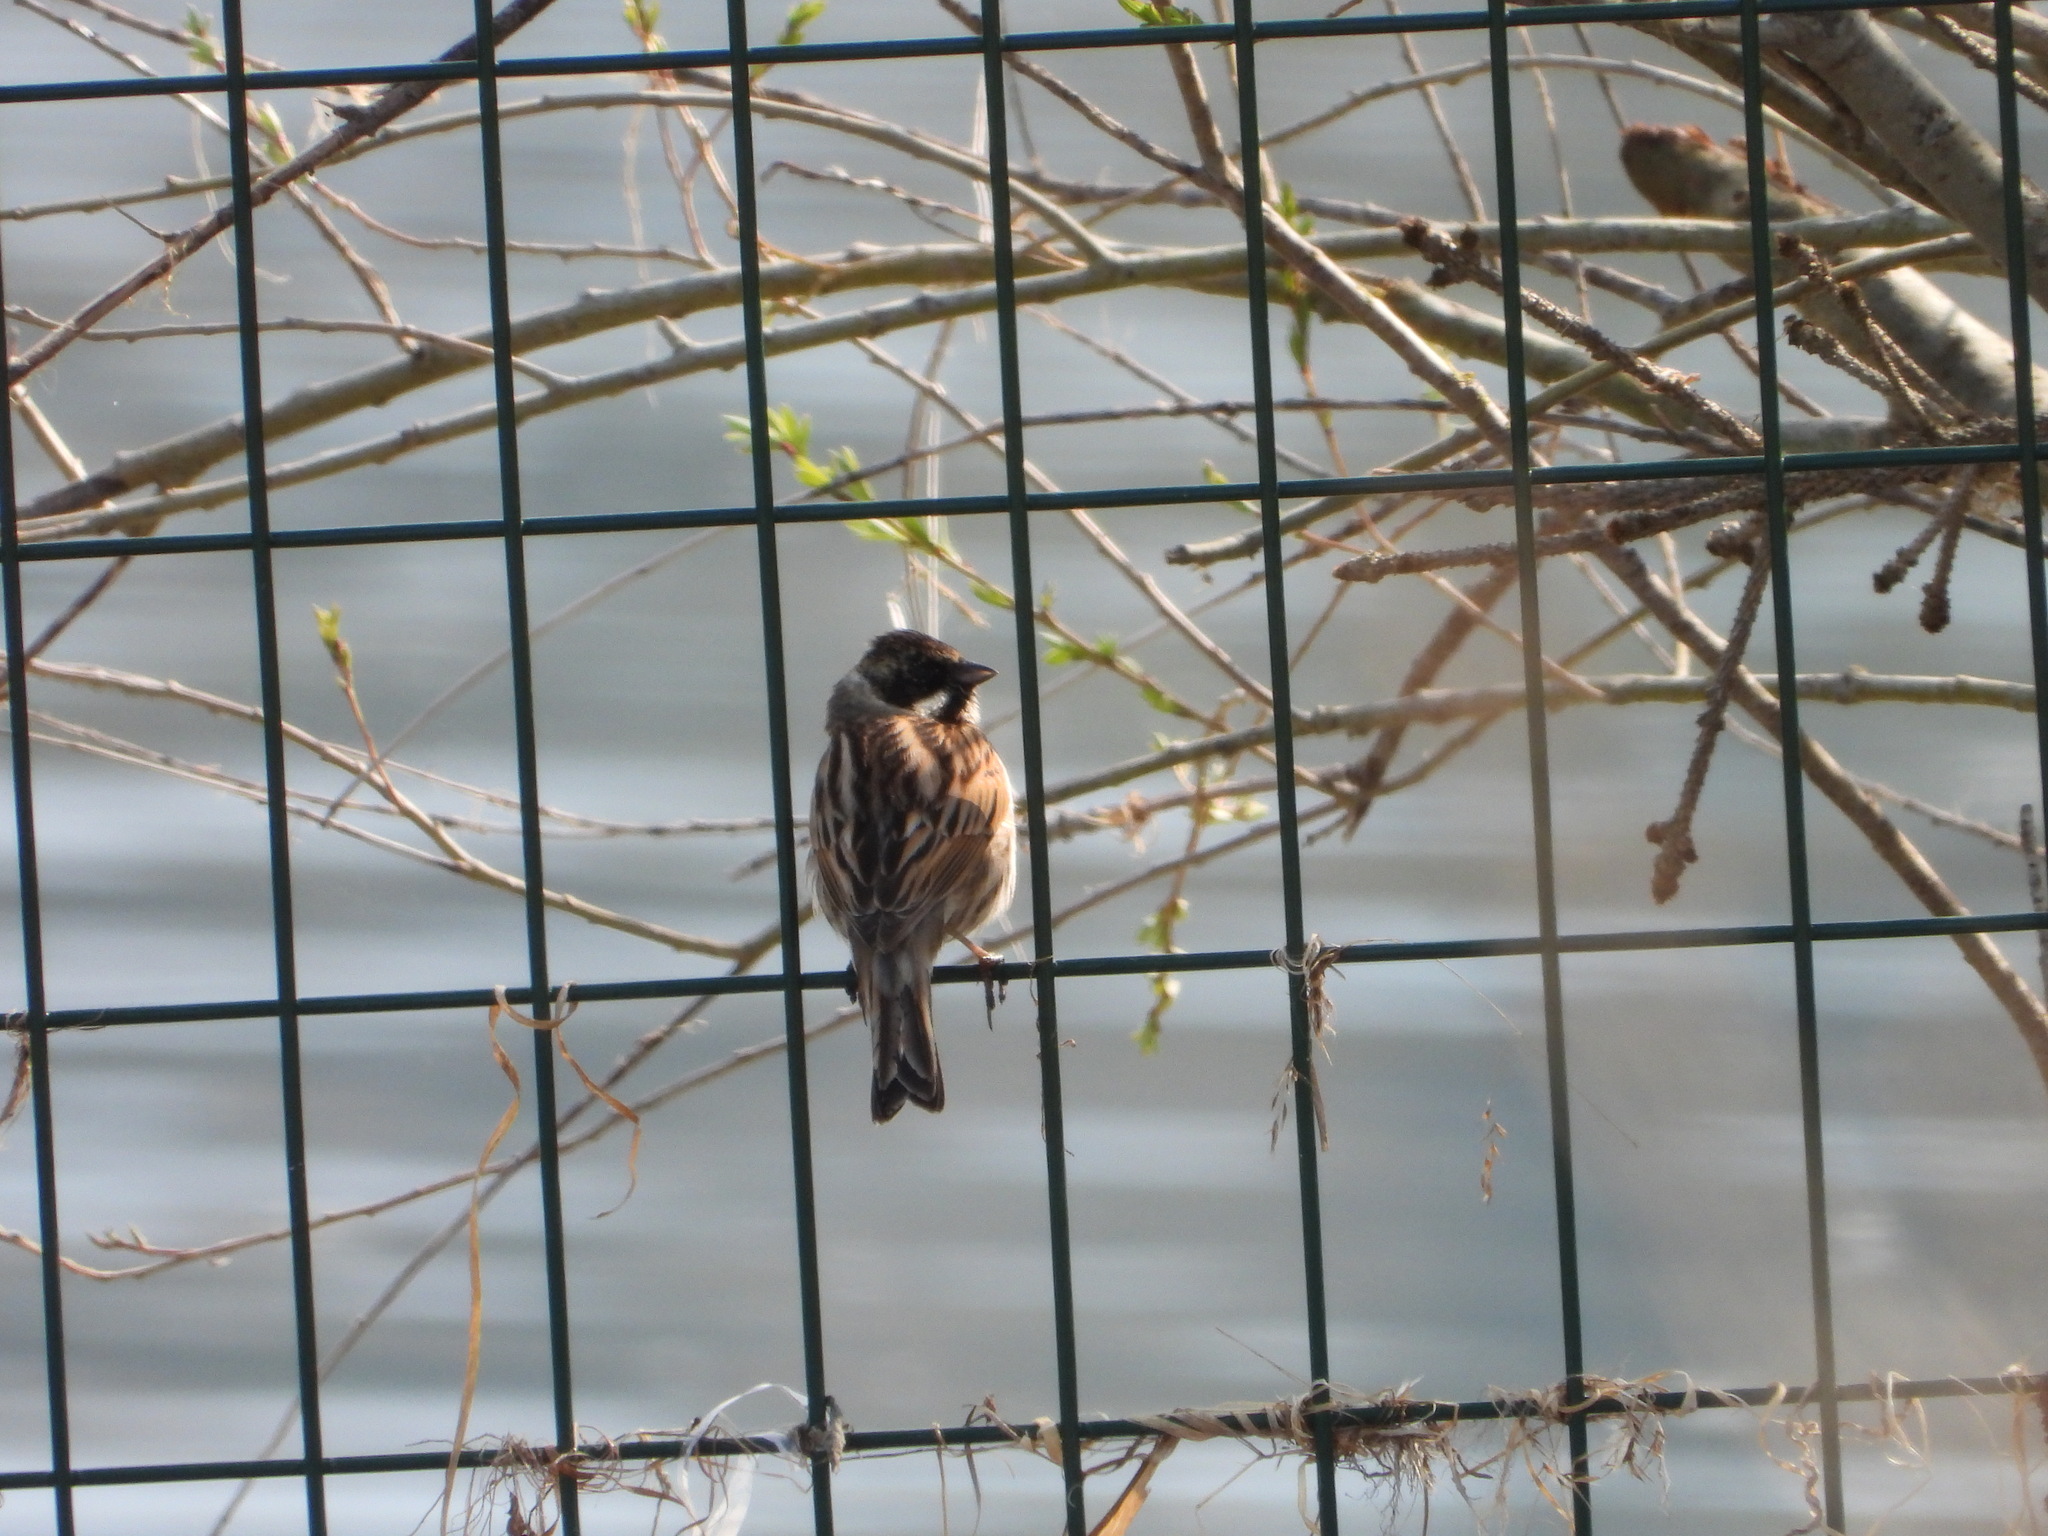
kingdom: Animalia
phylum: Chordata
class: Aves
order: Passeriformes
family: Emberizidae
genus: Emberiza
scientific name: Emberiza schoeniclus
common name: Reed bunting
